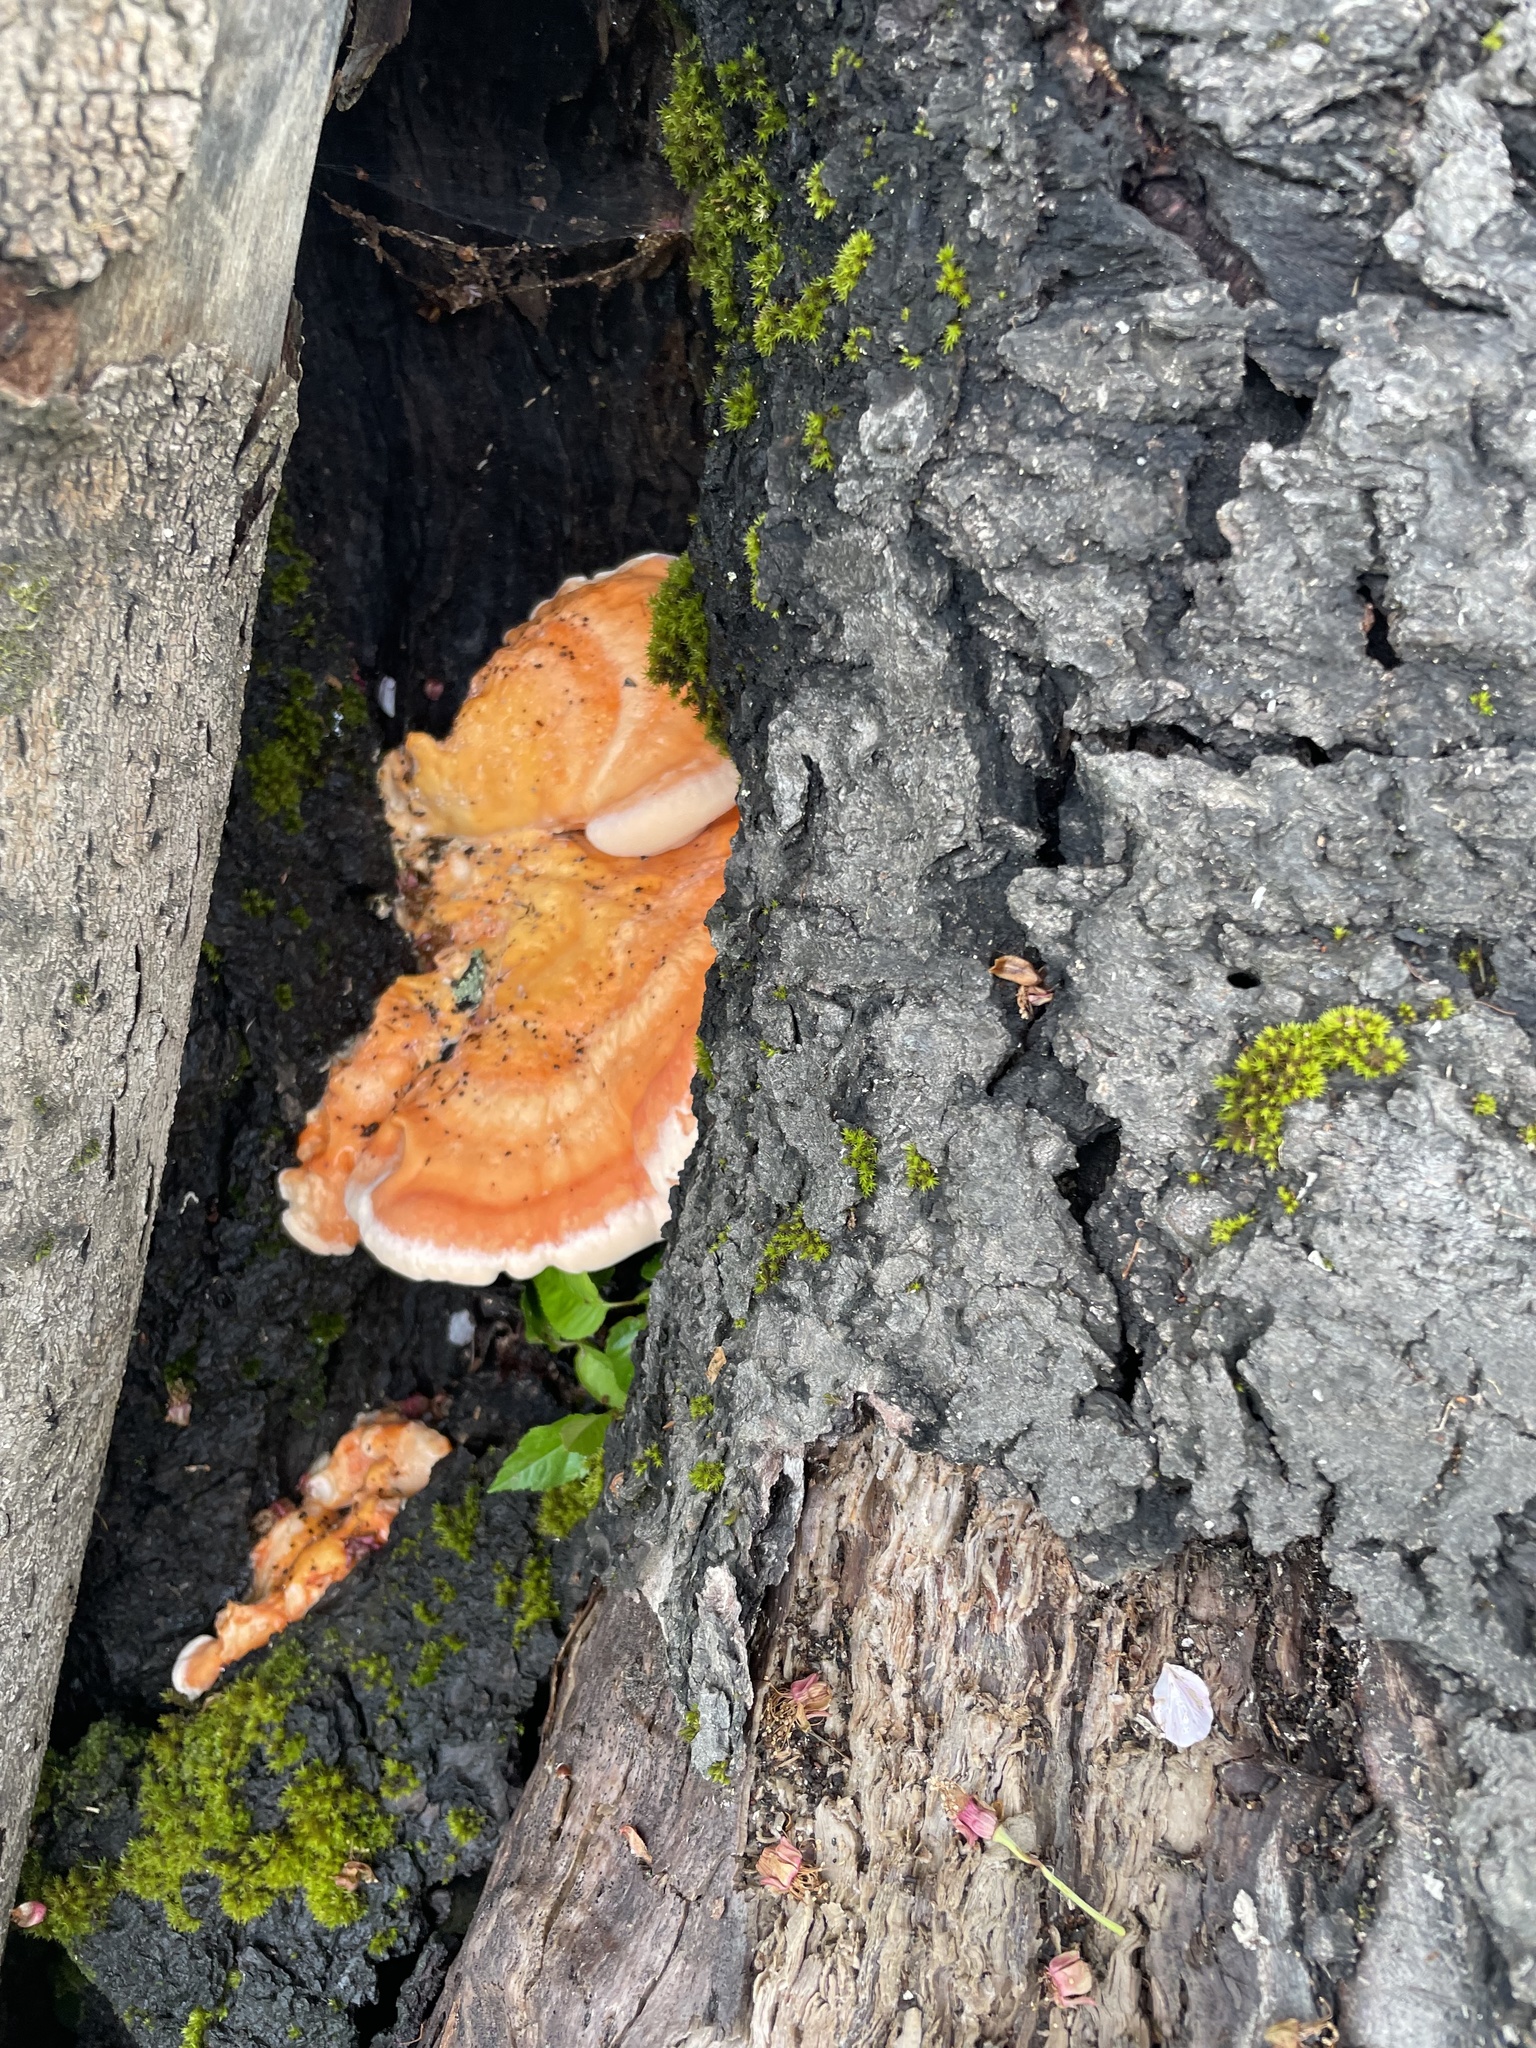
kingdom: Fungi
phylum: Basidiomycota
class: Agaricomycetes
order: Polyporales
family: Laetiporaceae
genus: Laetiporus
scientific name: Laetiporus sulphureus
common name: Chicken of the woods
